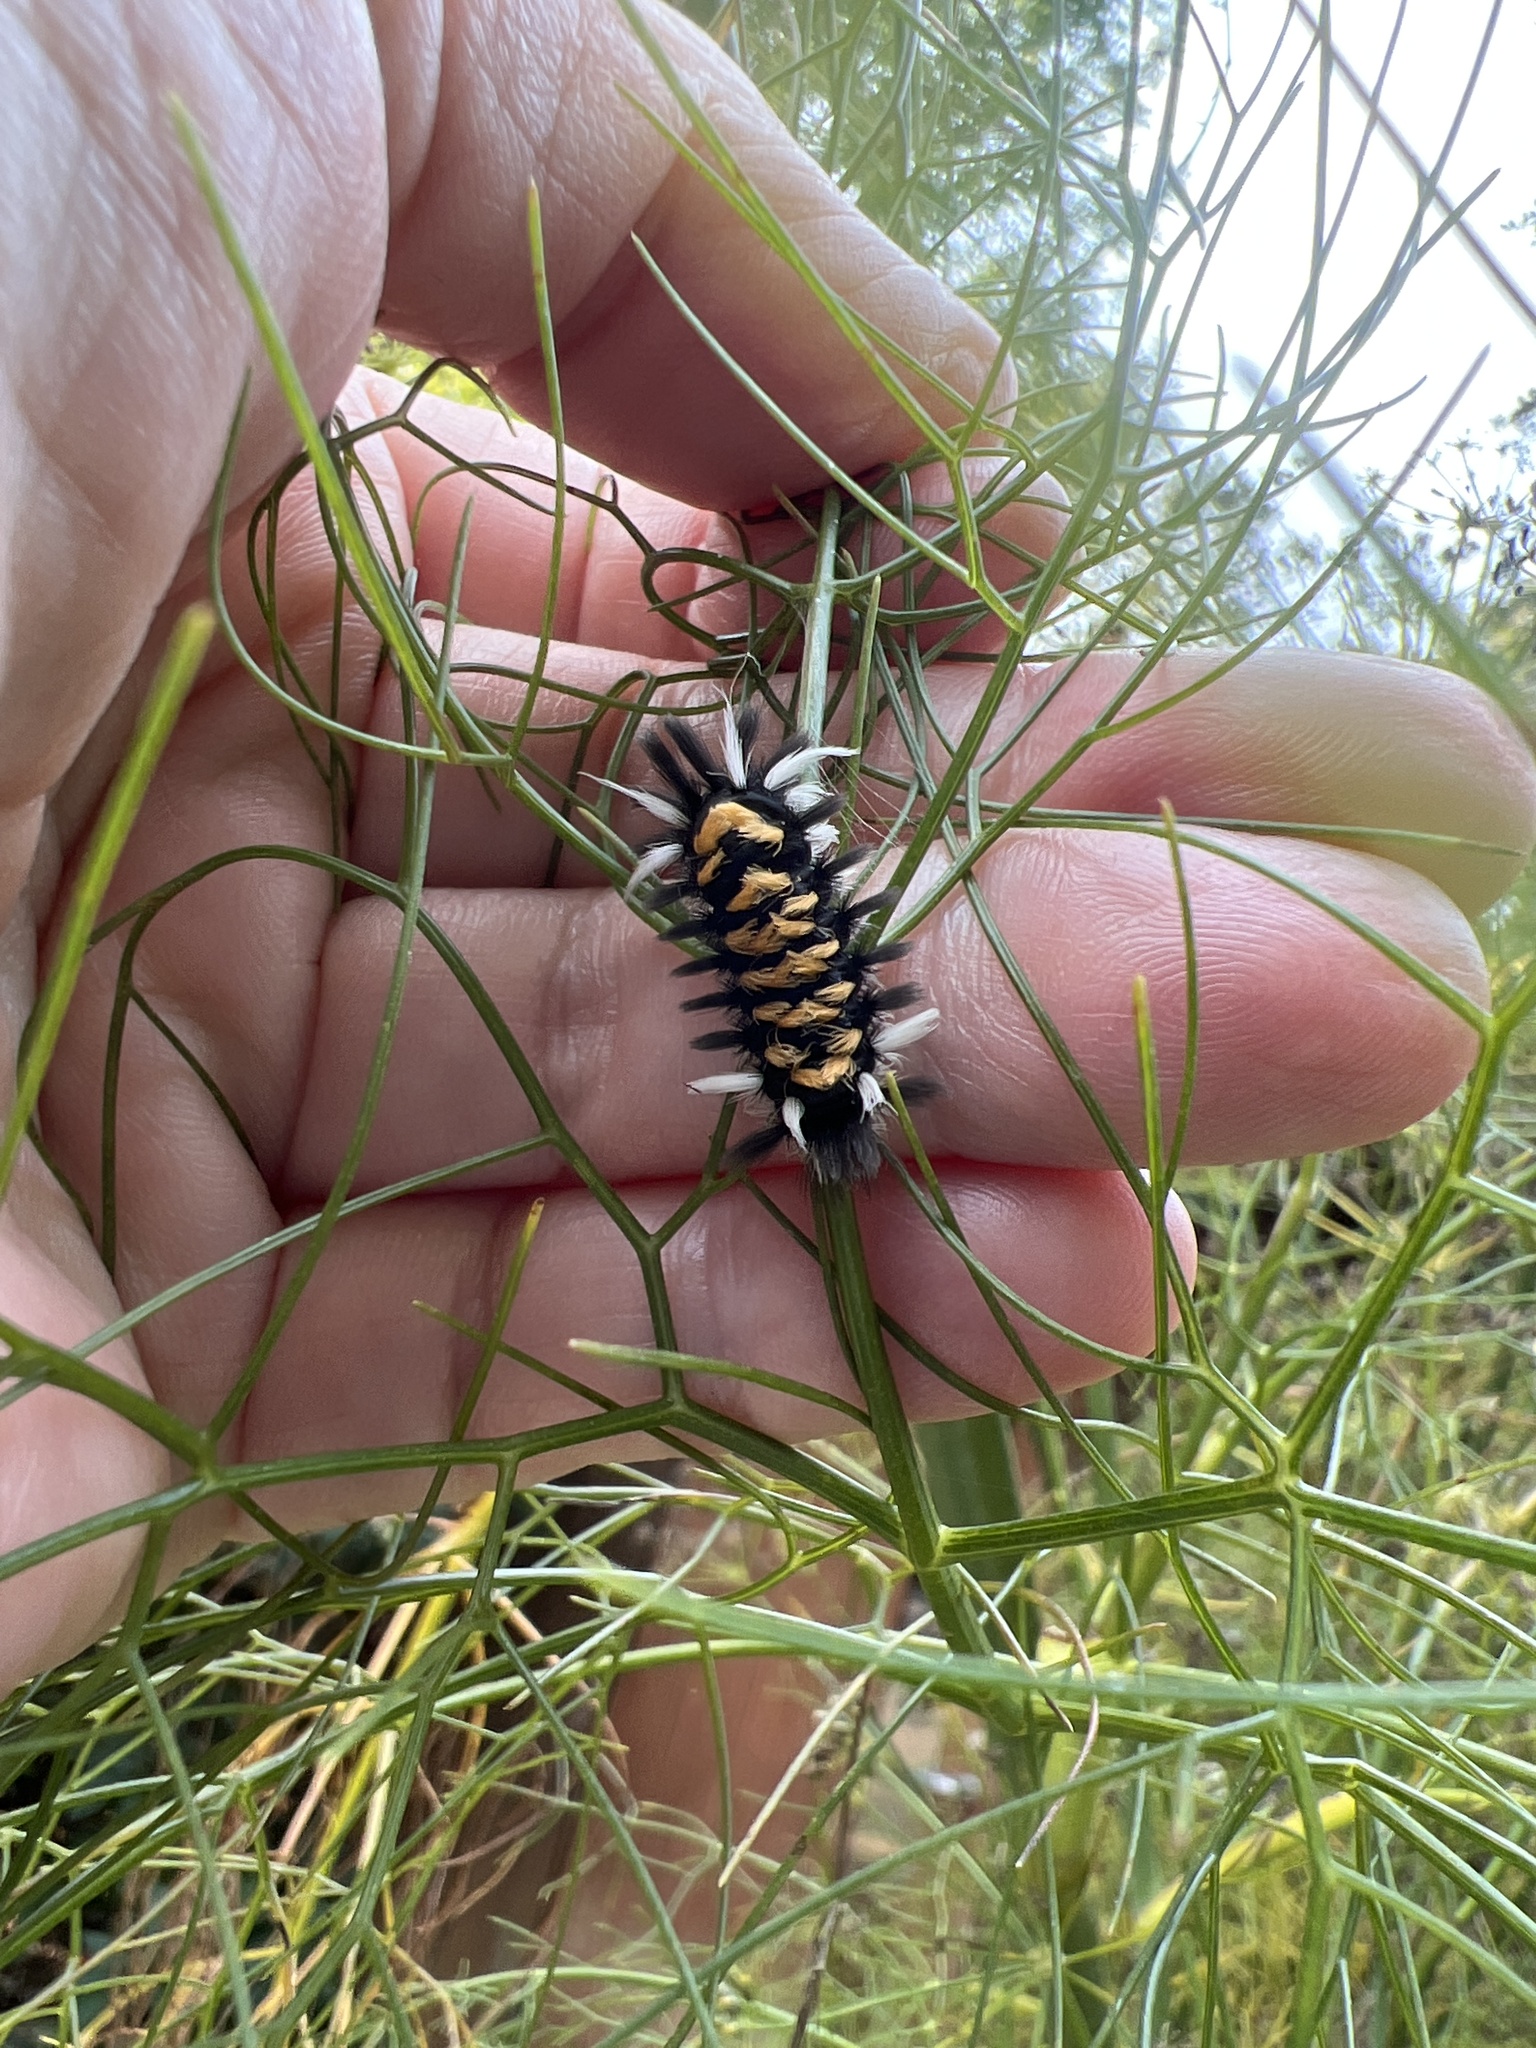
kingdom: Animalia
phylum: Arthropoda
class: Insecta
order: Lepidoptera
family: Erebidae
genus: Euchaetes
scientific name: Euchaetes egle
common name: Milkweed tussock moth
